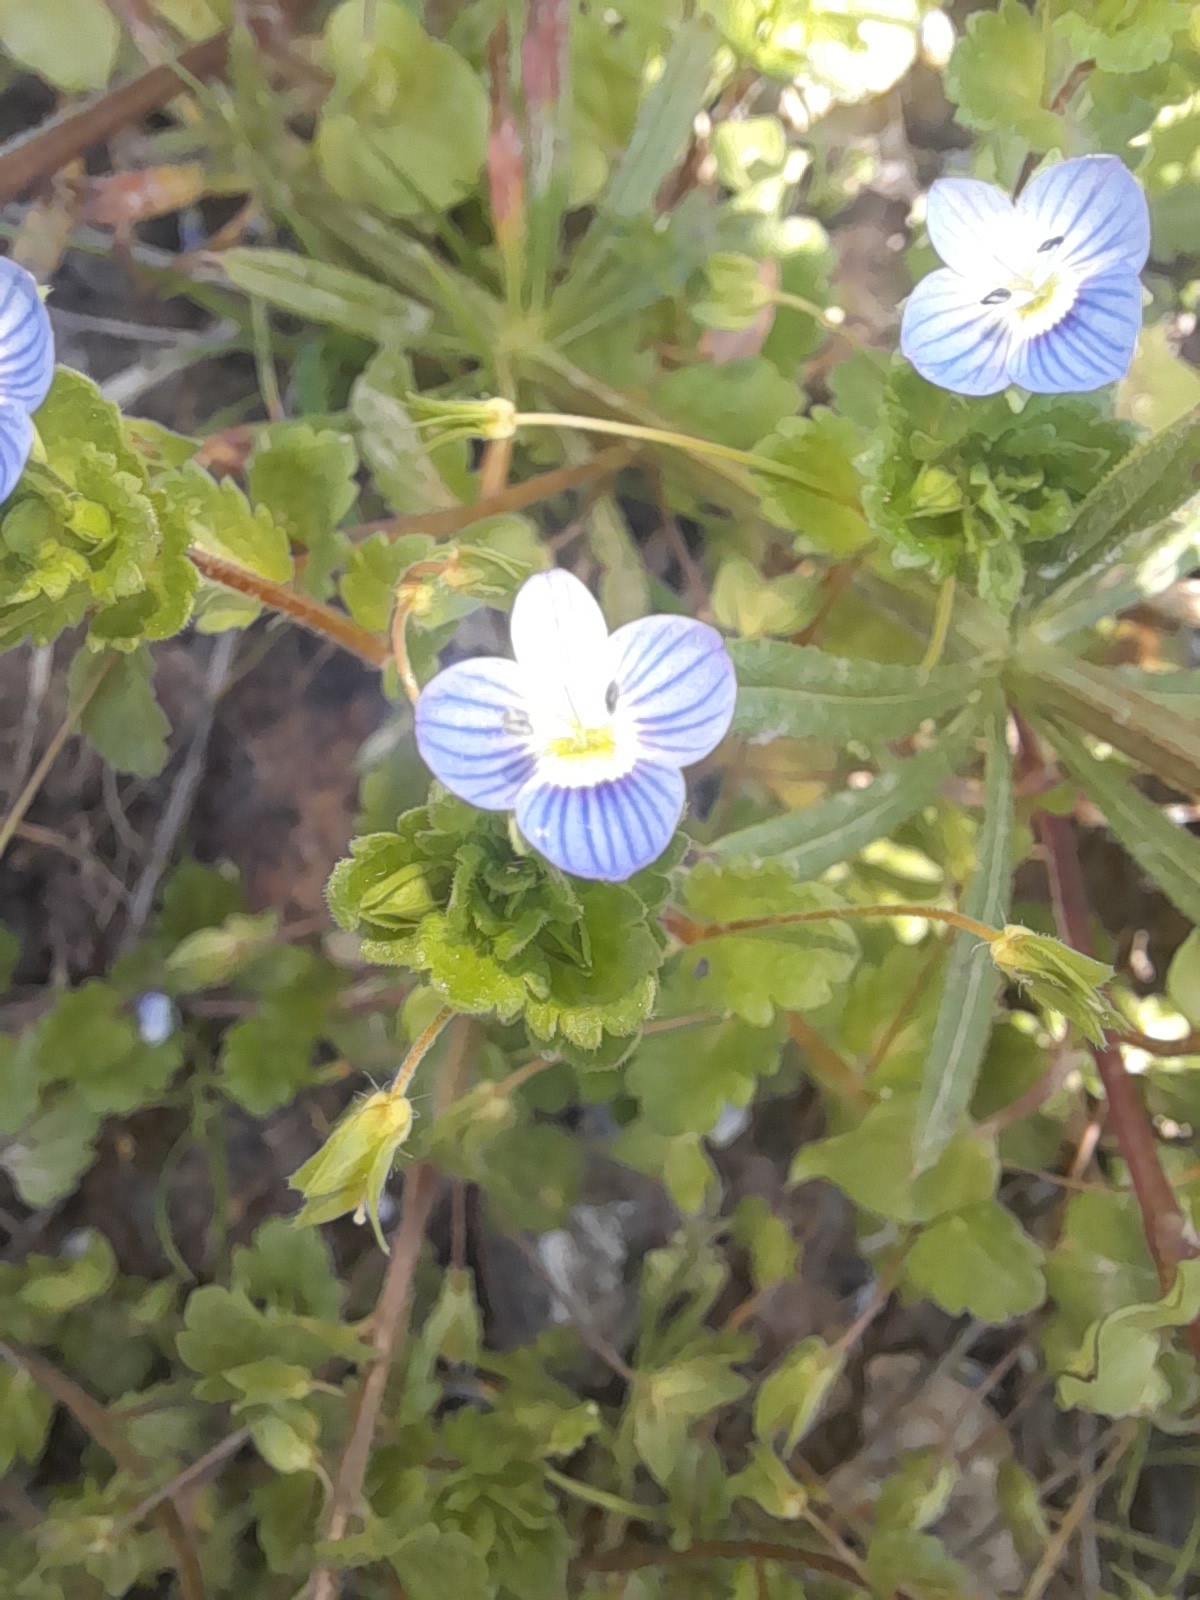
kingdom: Plantae
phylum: Tracheophyta
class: Magnoliopsida
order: Lamiales
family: Plantaginaceae
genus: Veronica
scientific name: Veronica persica
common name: Common field-speedwell
